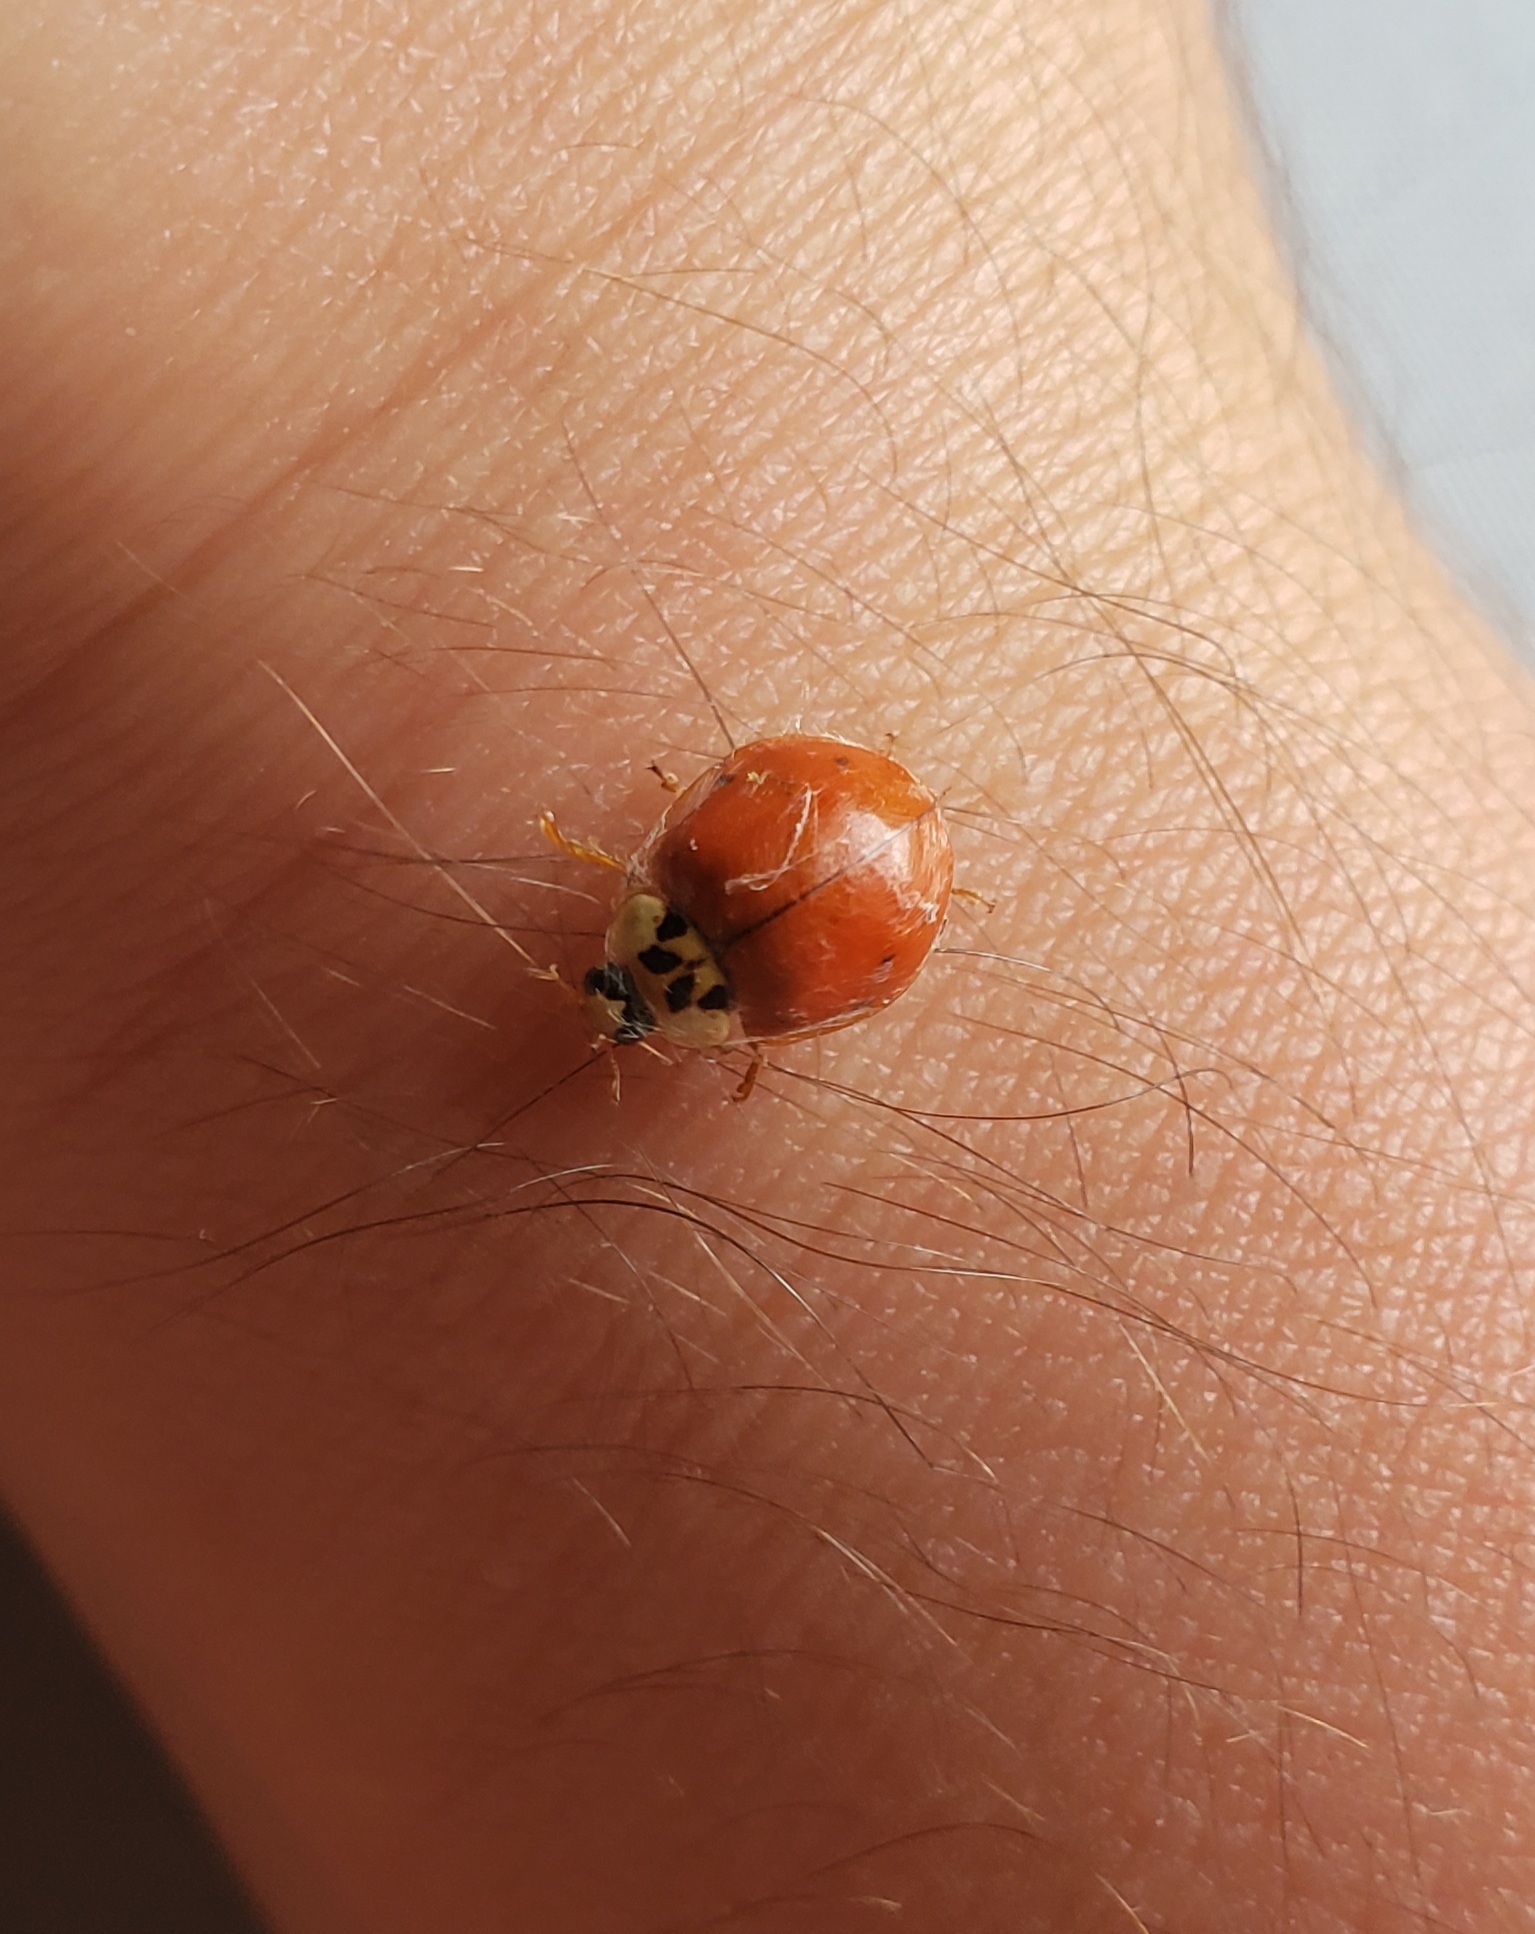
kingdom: Animalia
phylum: Arthropoda
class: Insecta
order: Coleoptera
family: Coccinellidae
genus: Harmonia
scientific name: Harmonia axyridis
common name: Harlequin ladybird
